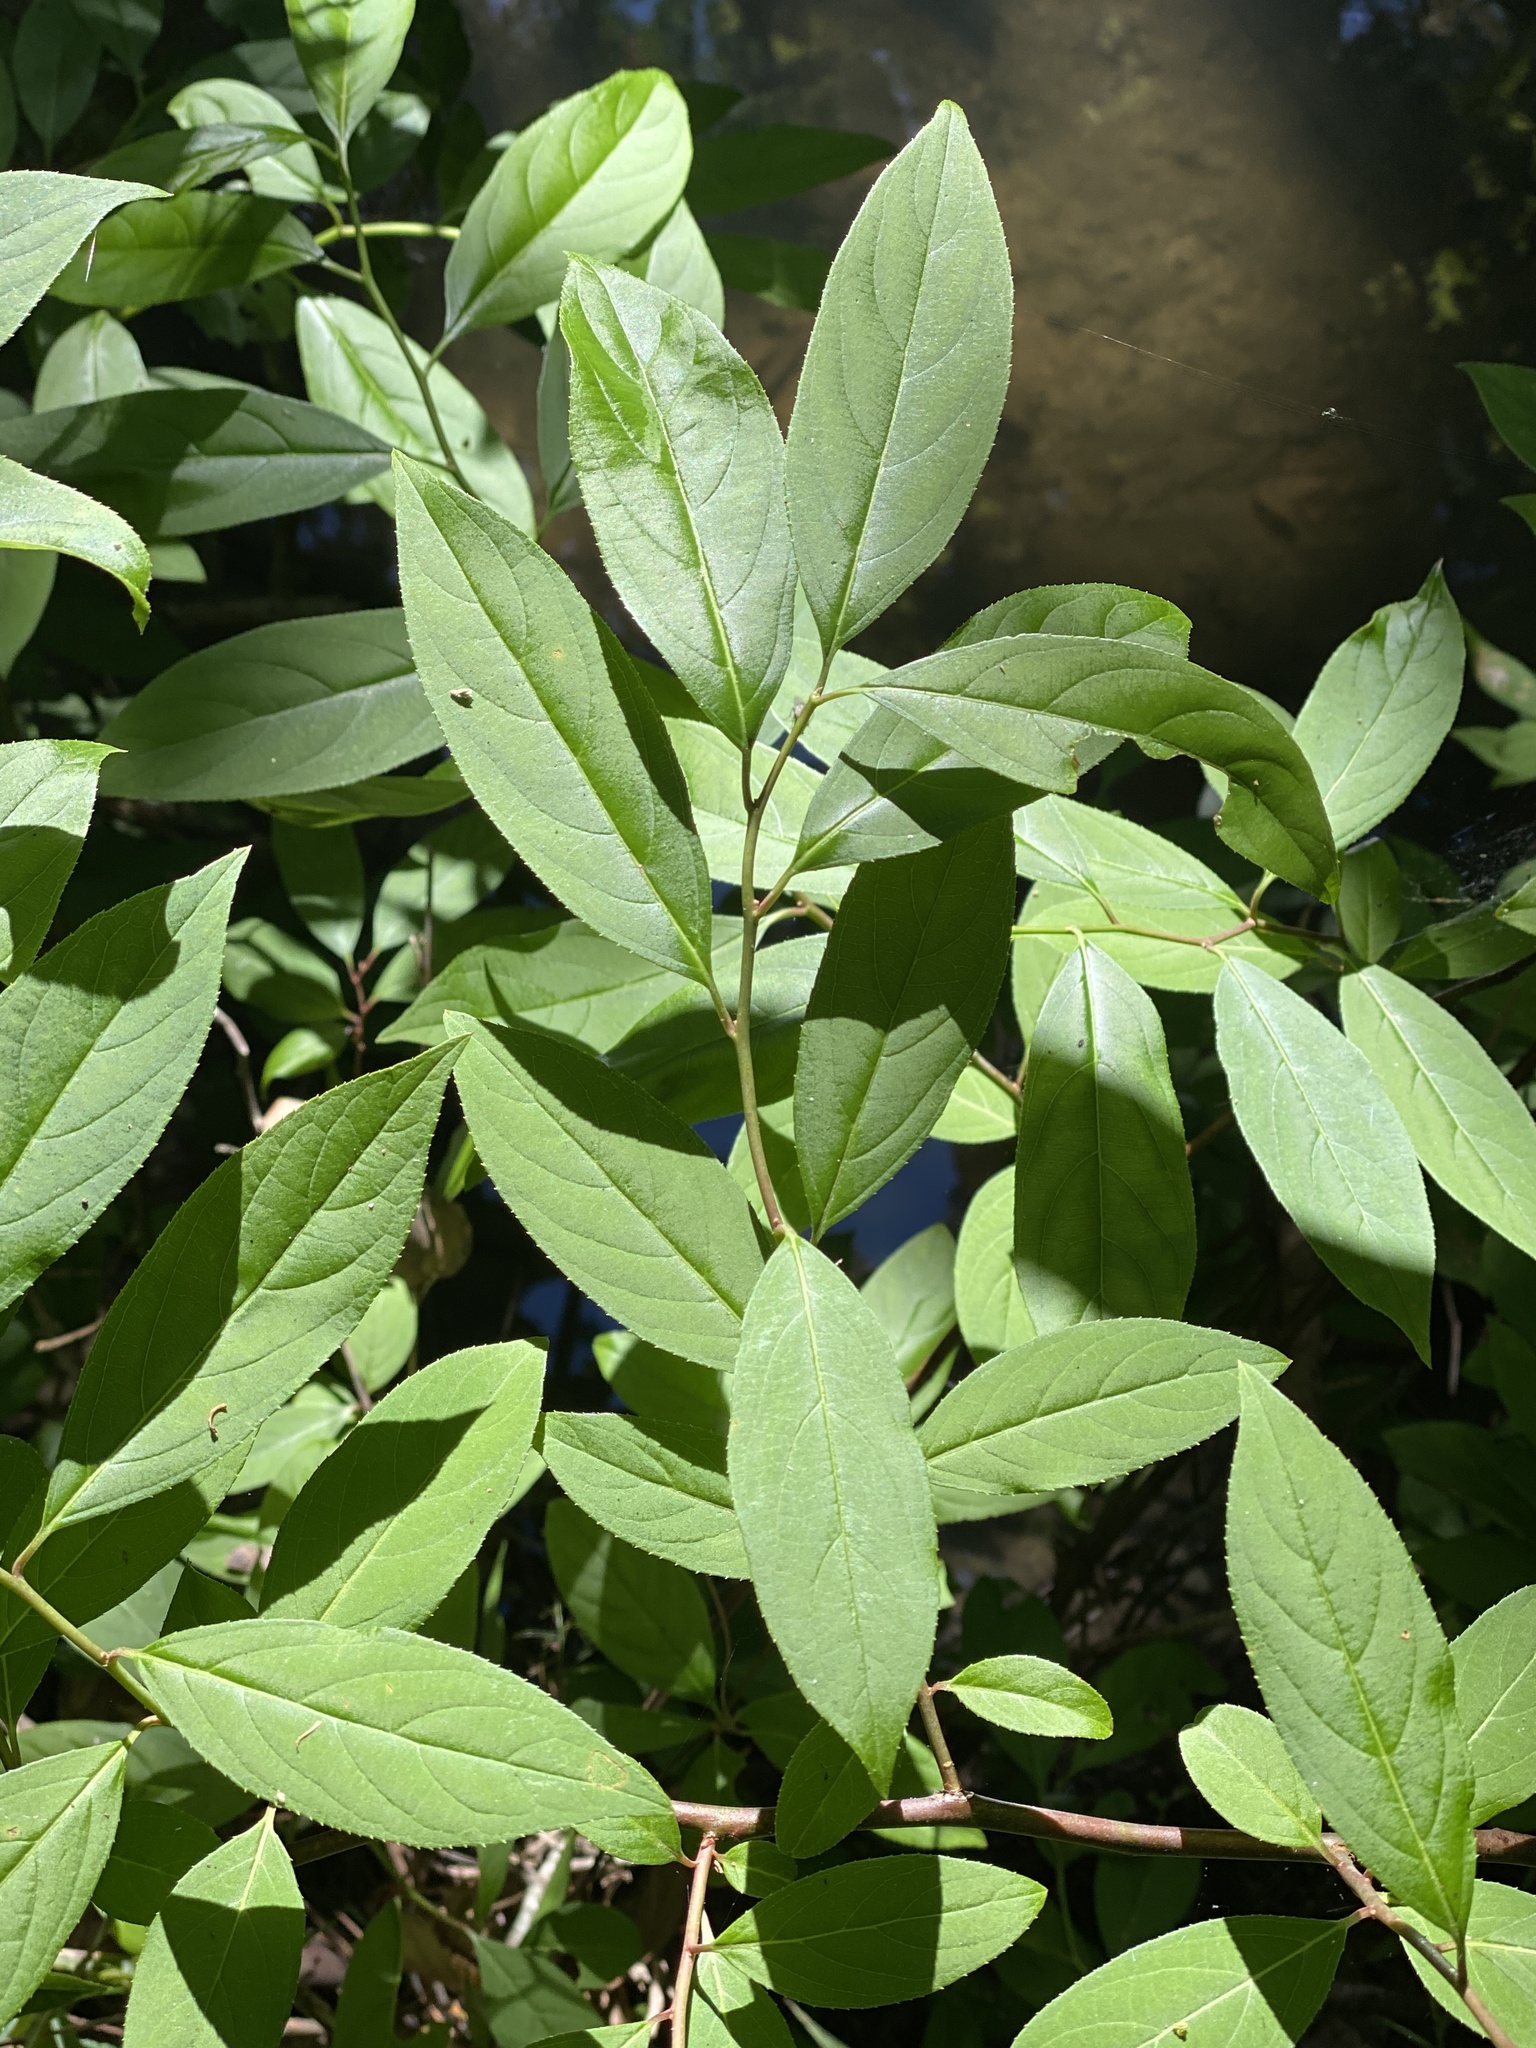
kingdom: Plantae
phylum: Tracheophyta
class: Magnoliopsida
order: Saxifragales
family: Iteaceae
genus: Itea
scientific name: Itea virginica
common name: Sweetspire
